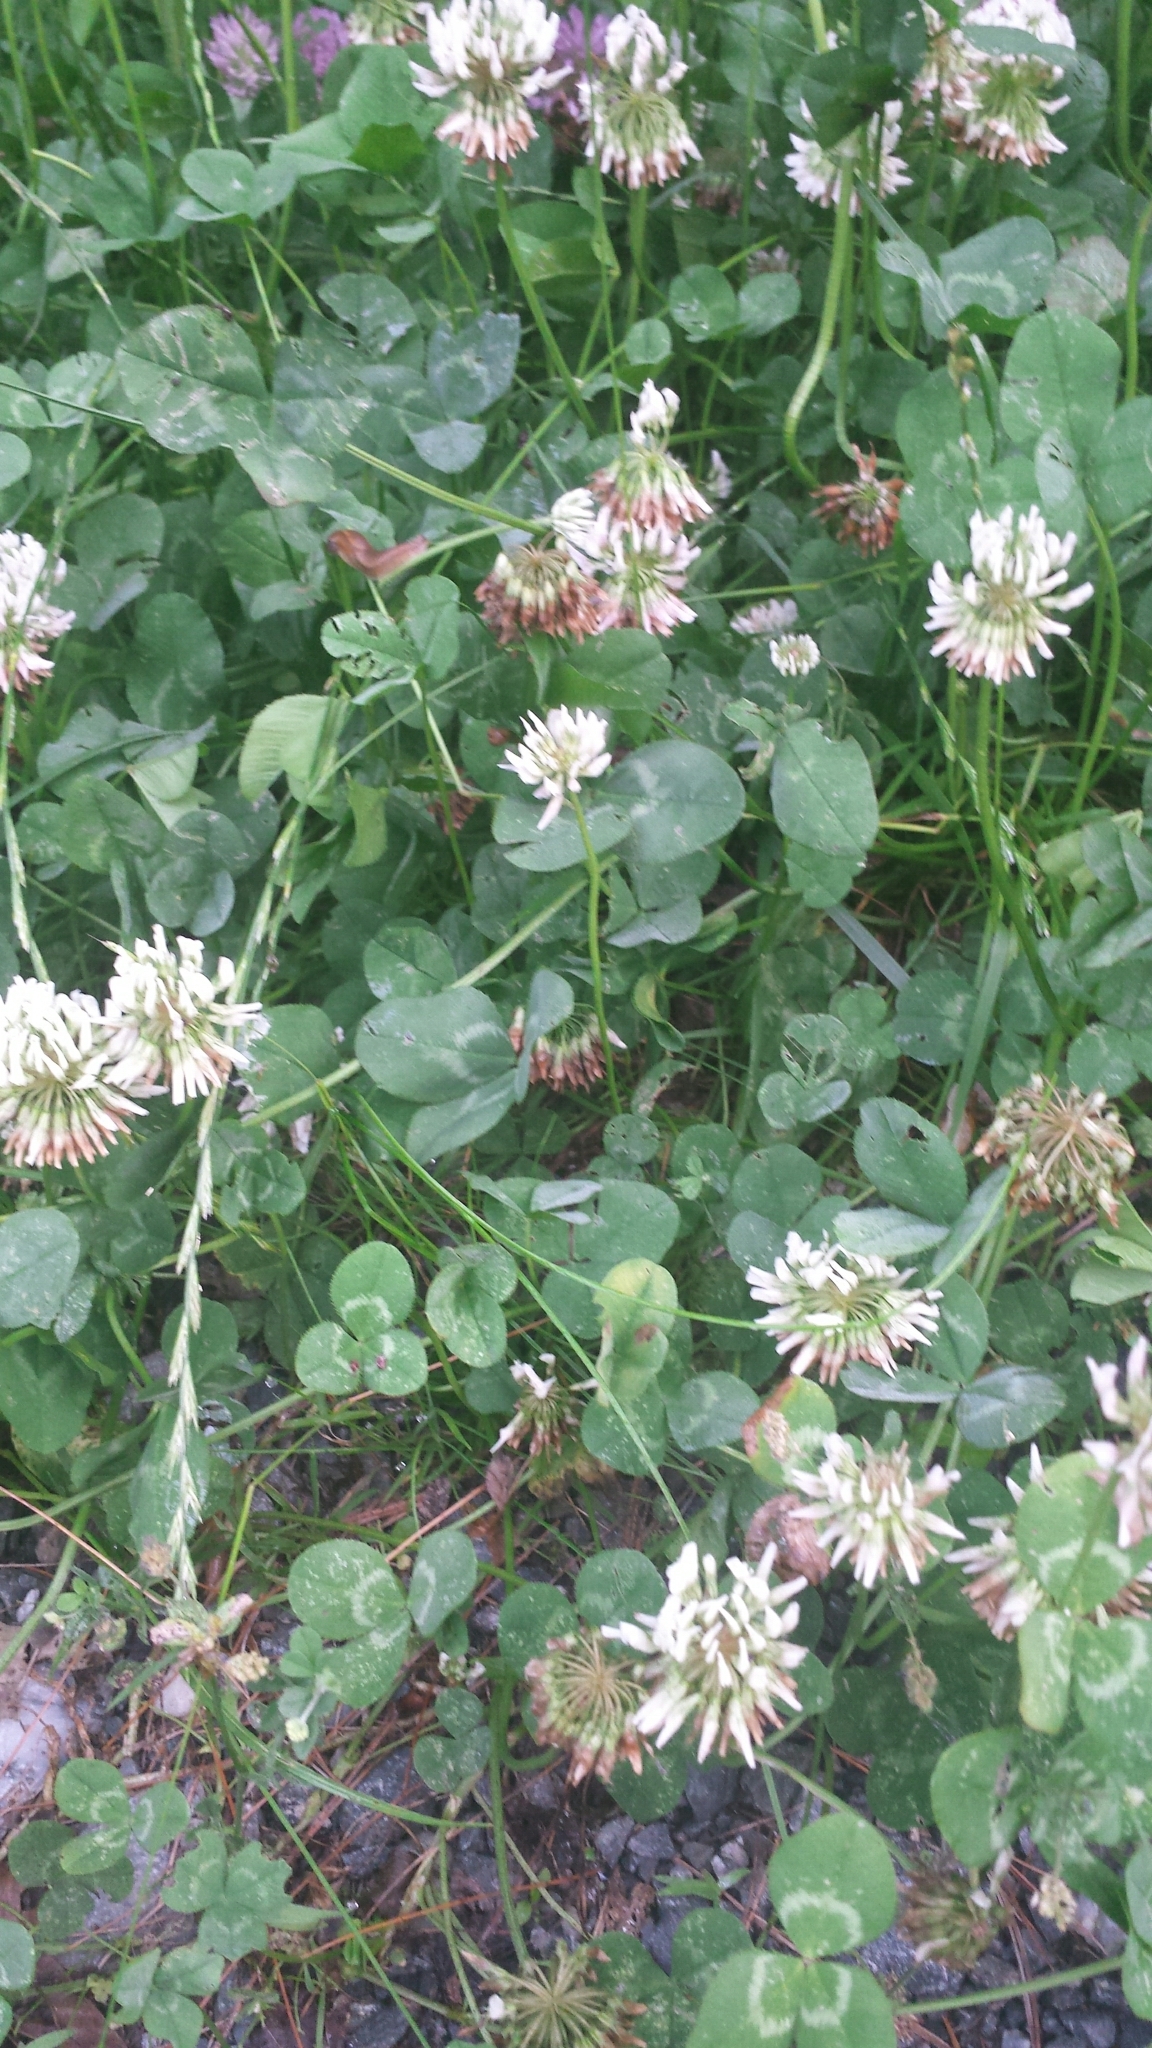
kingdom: Plantae
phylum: Tracheophyta
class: Magnoliopsida
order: Fabales
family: Fabaceae
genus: Trifolium
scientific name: Trifolium repens
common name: White clover
